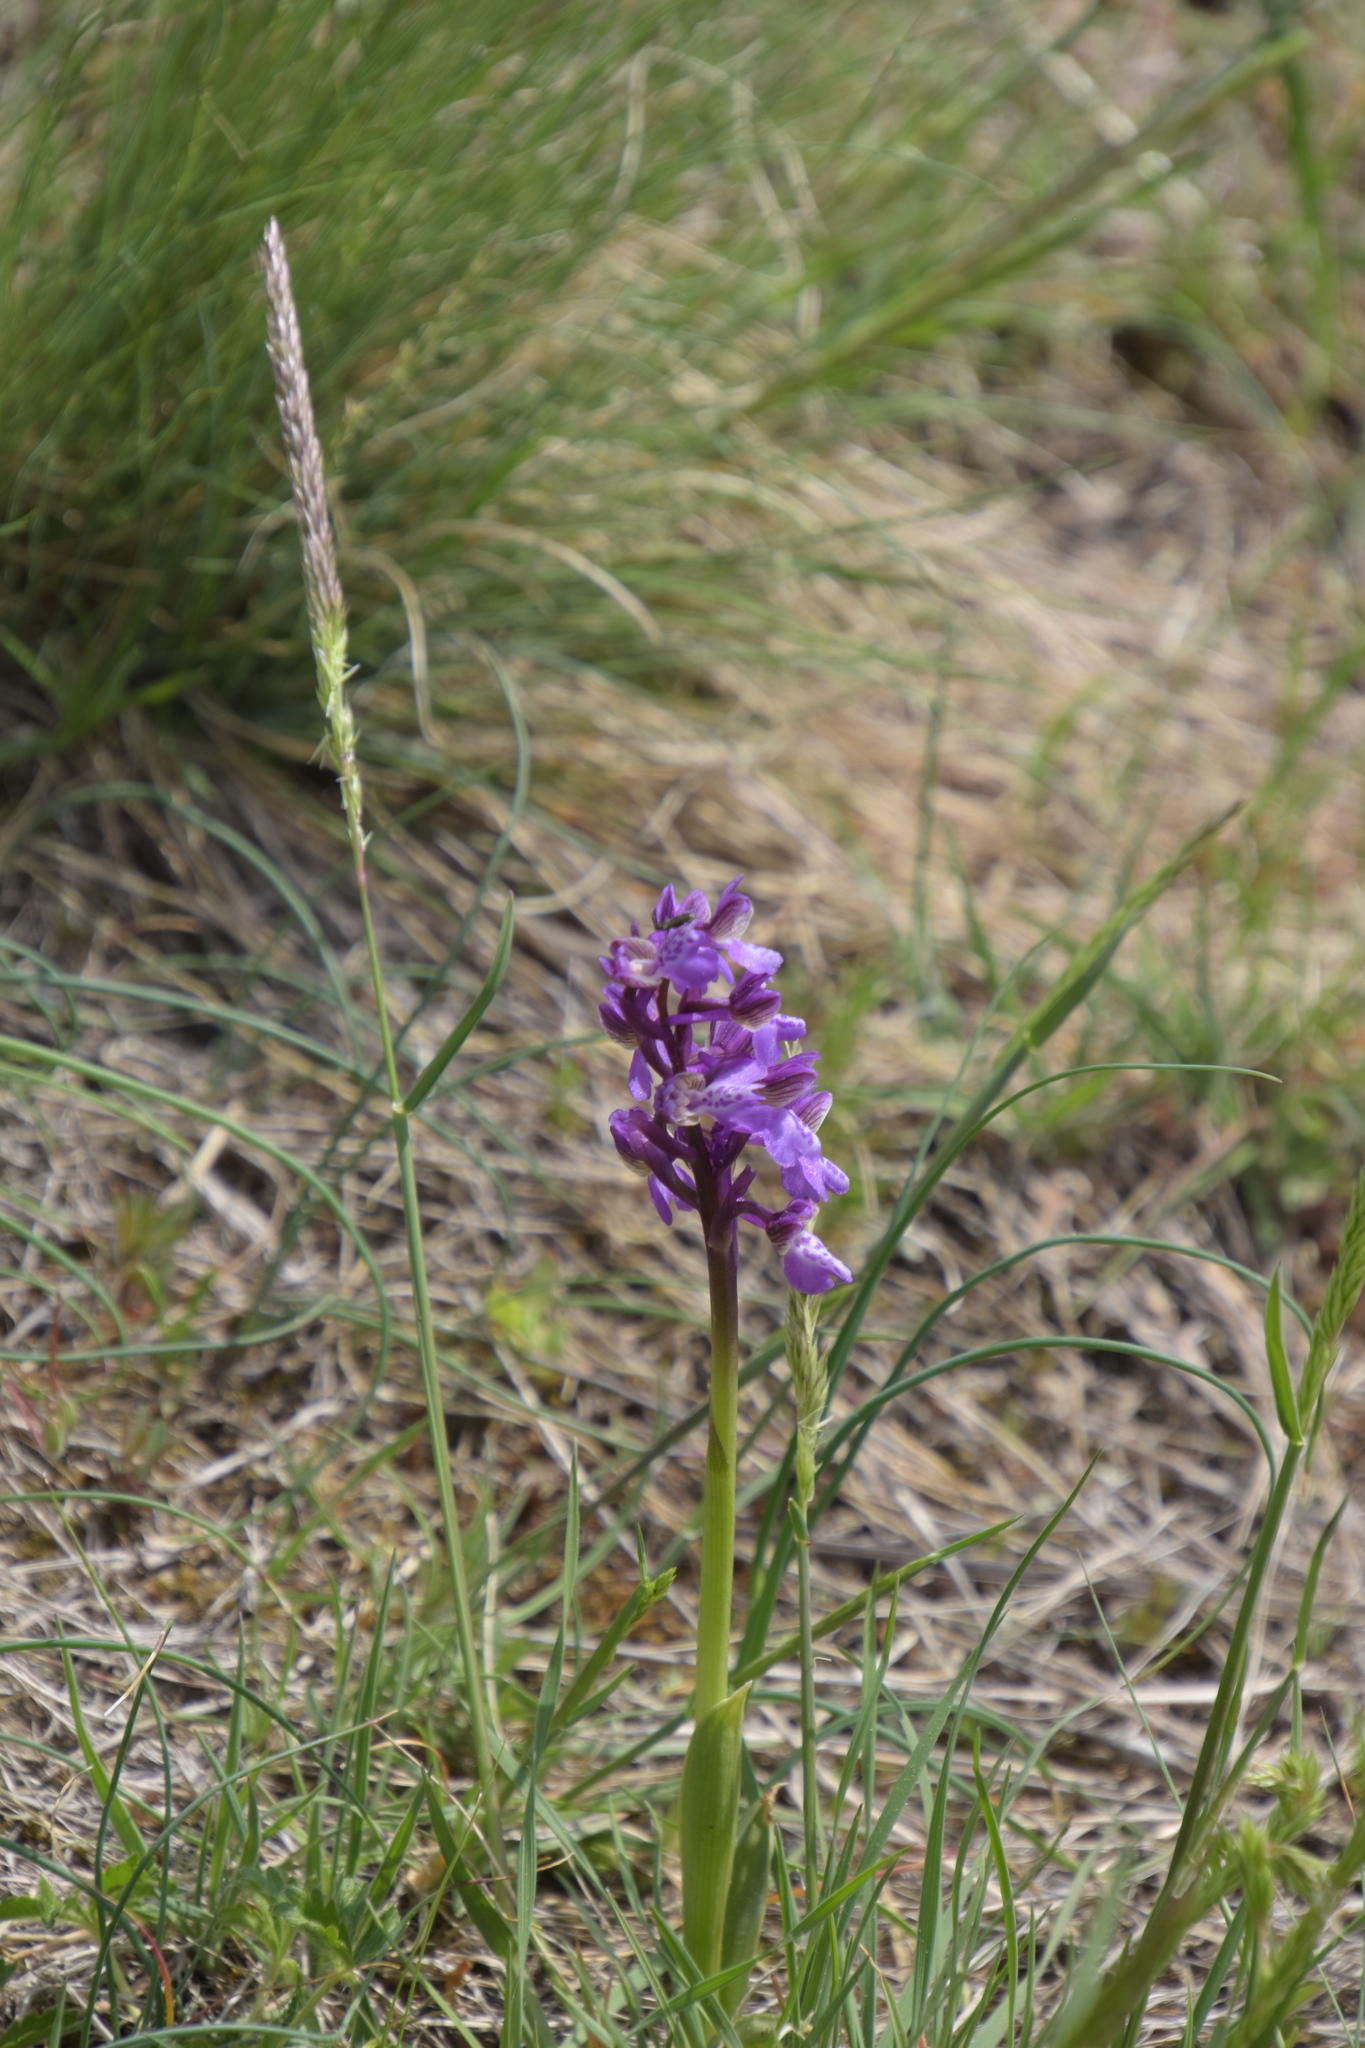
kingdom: Plantae
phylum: Tracheophyta
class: Liliopsida
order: Asparagales
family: Orchidaceae
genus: Anacamptis
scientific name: Anacamptis morio
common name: Green-winged orchid
